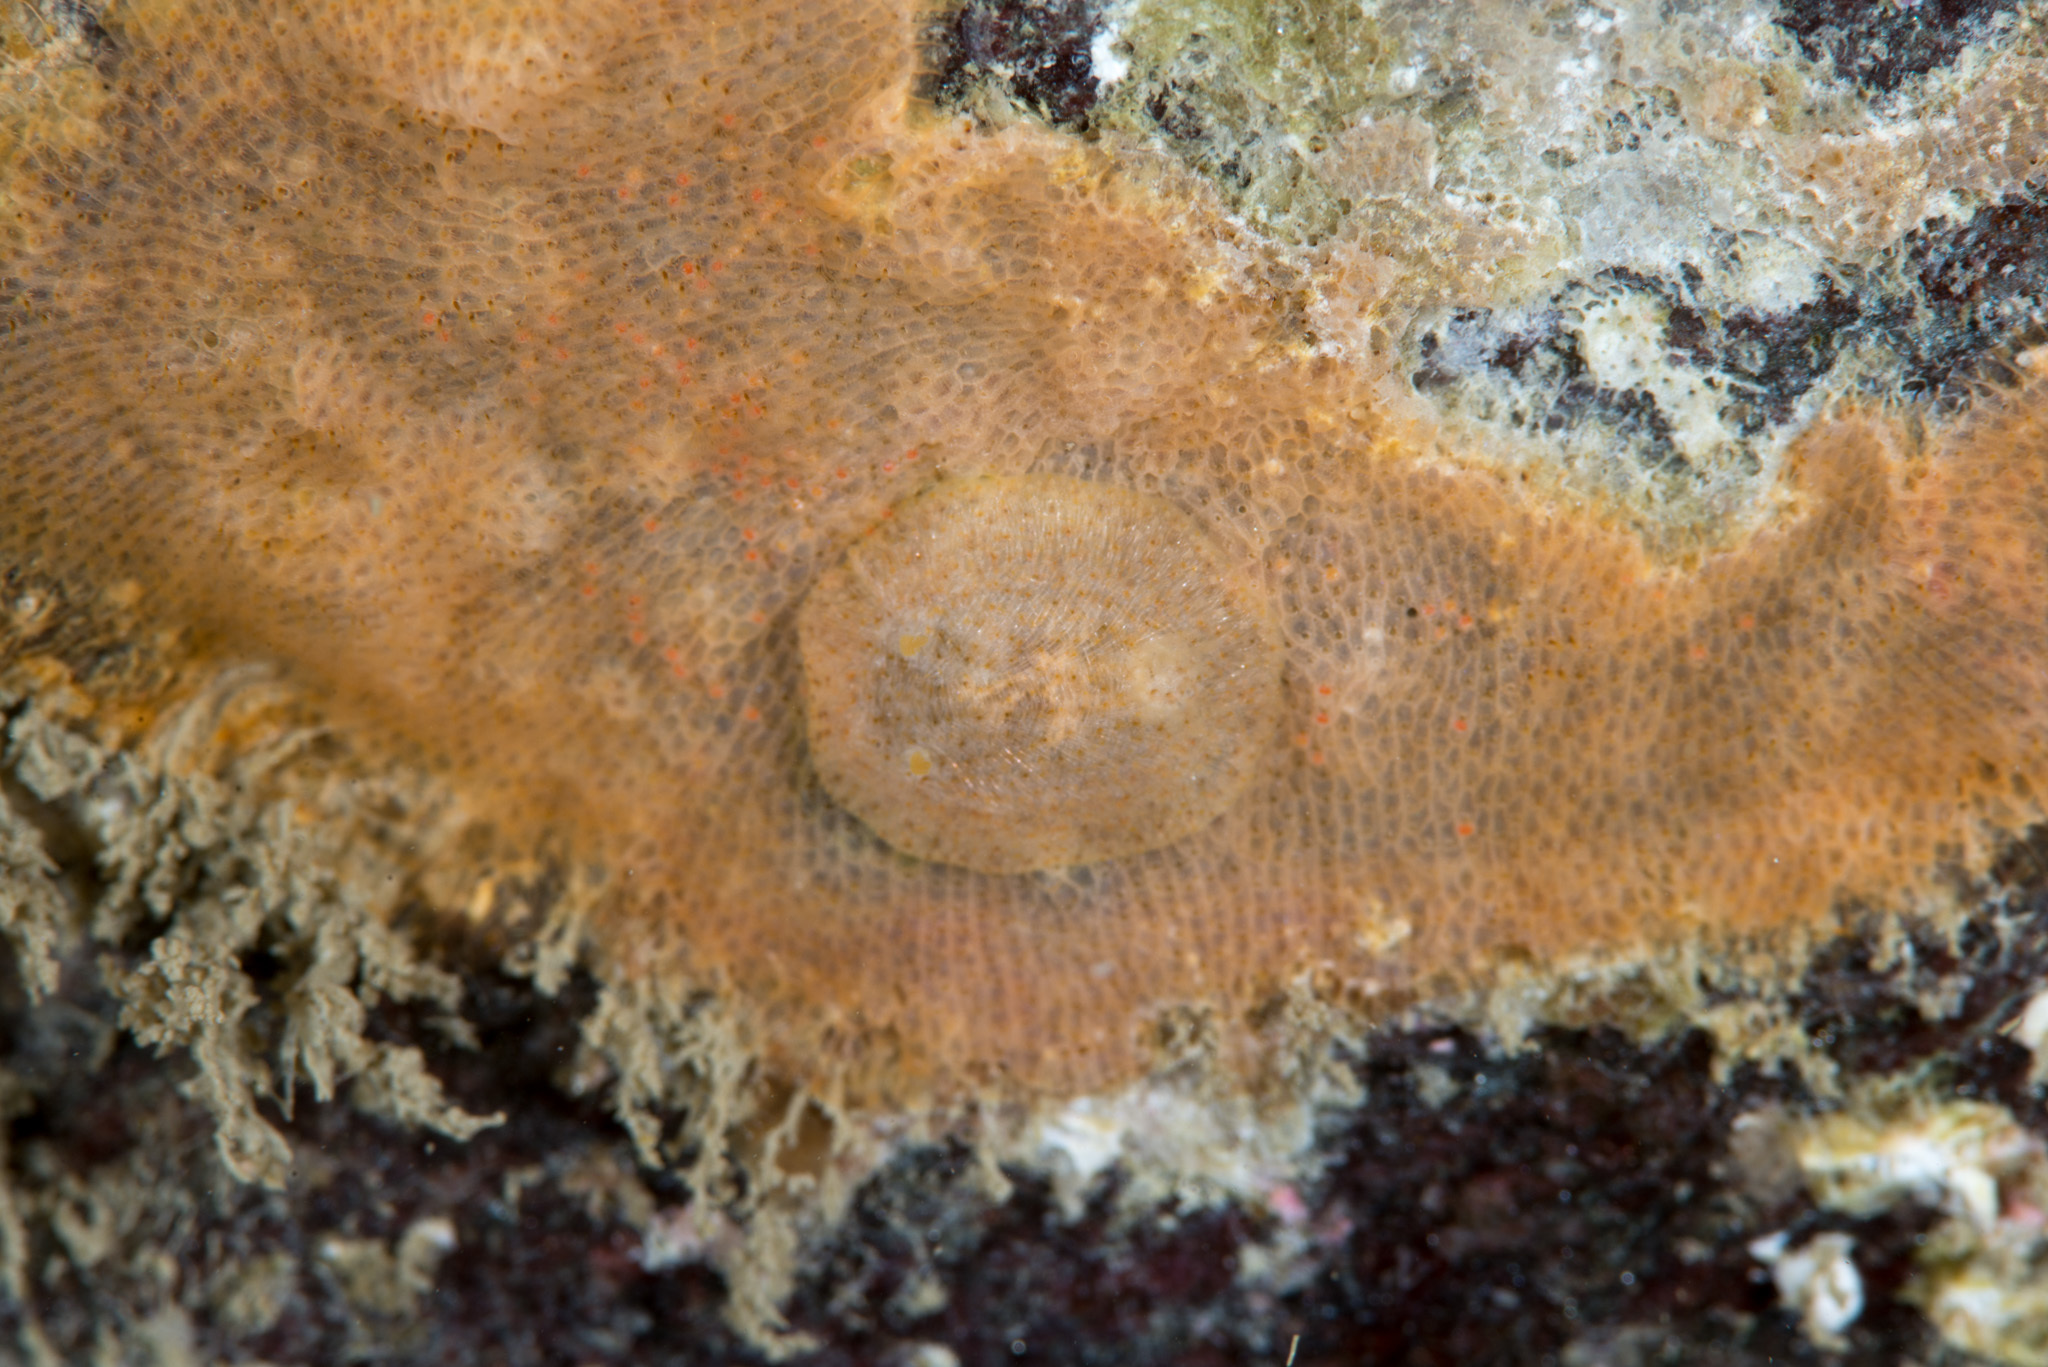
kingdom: Animalia
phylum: Mollusca
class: Gastropoda
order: Nudibranchia
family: Onchidorididae
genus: Idaliadoris
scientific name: Idaliadoris depressa
